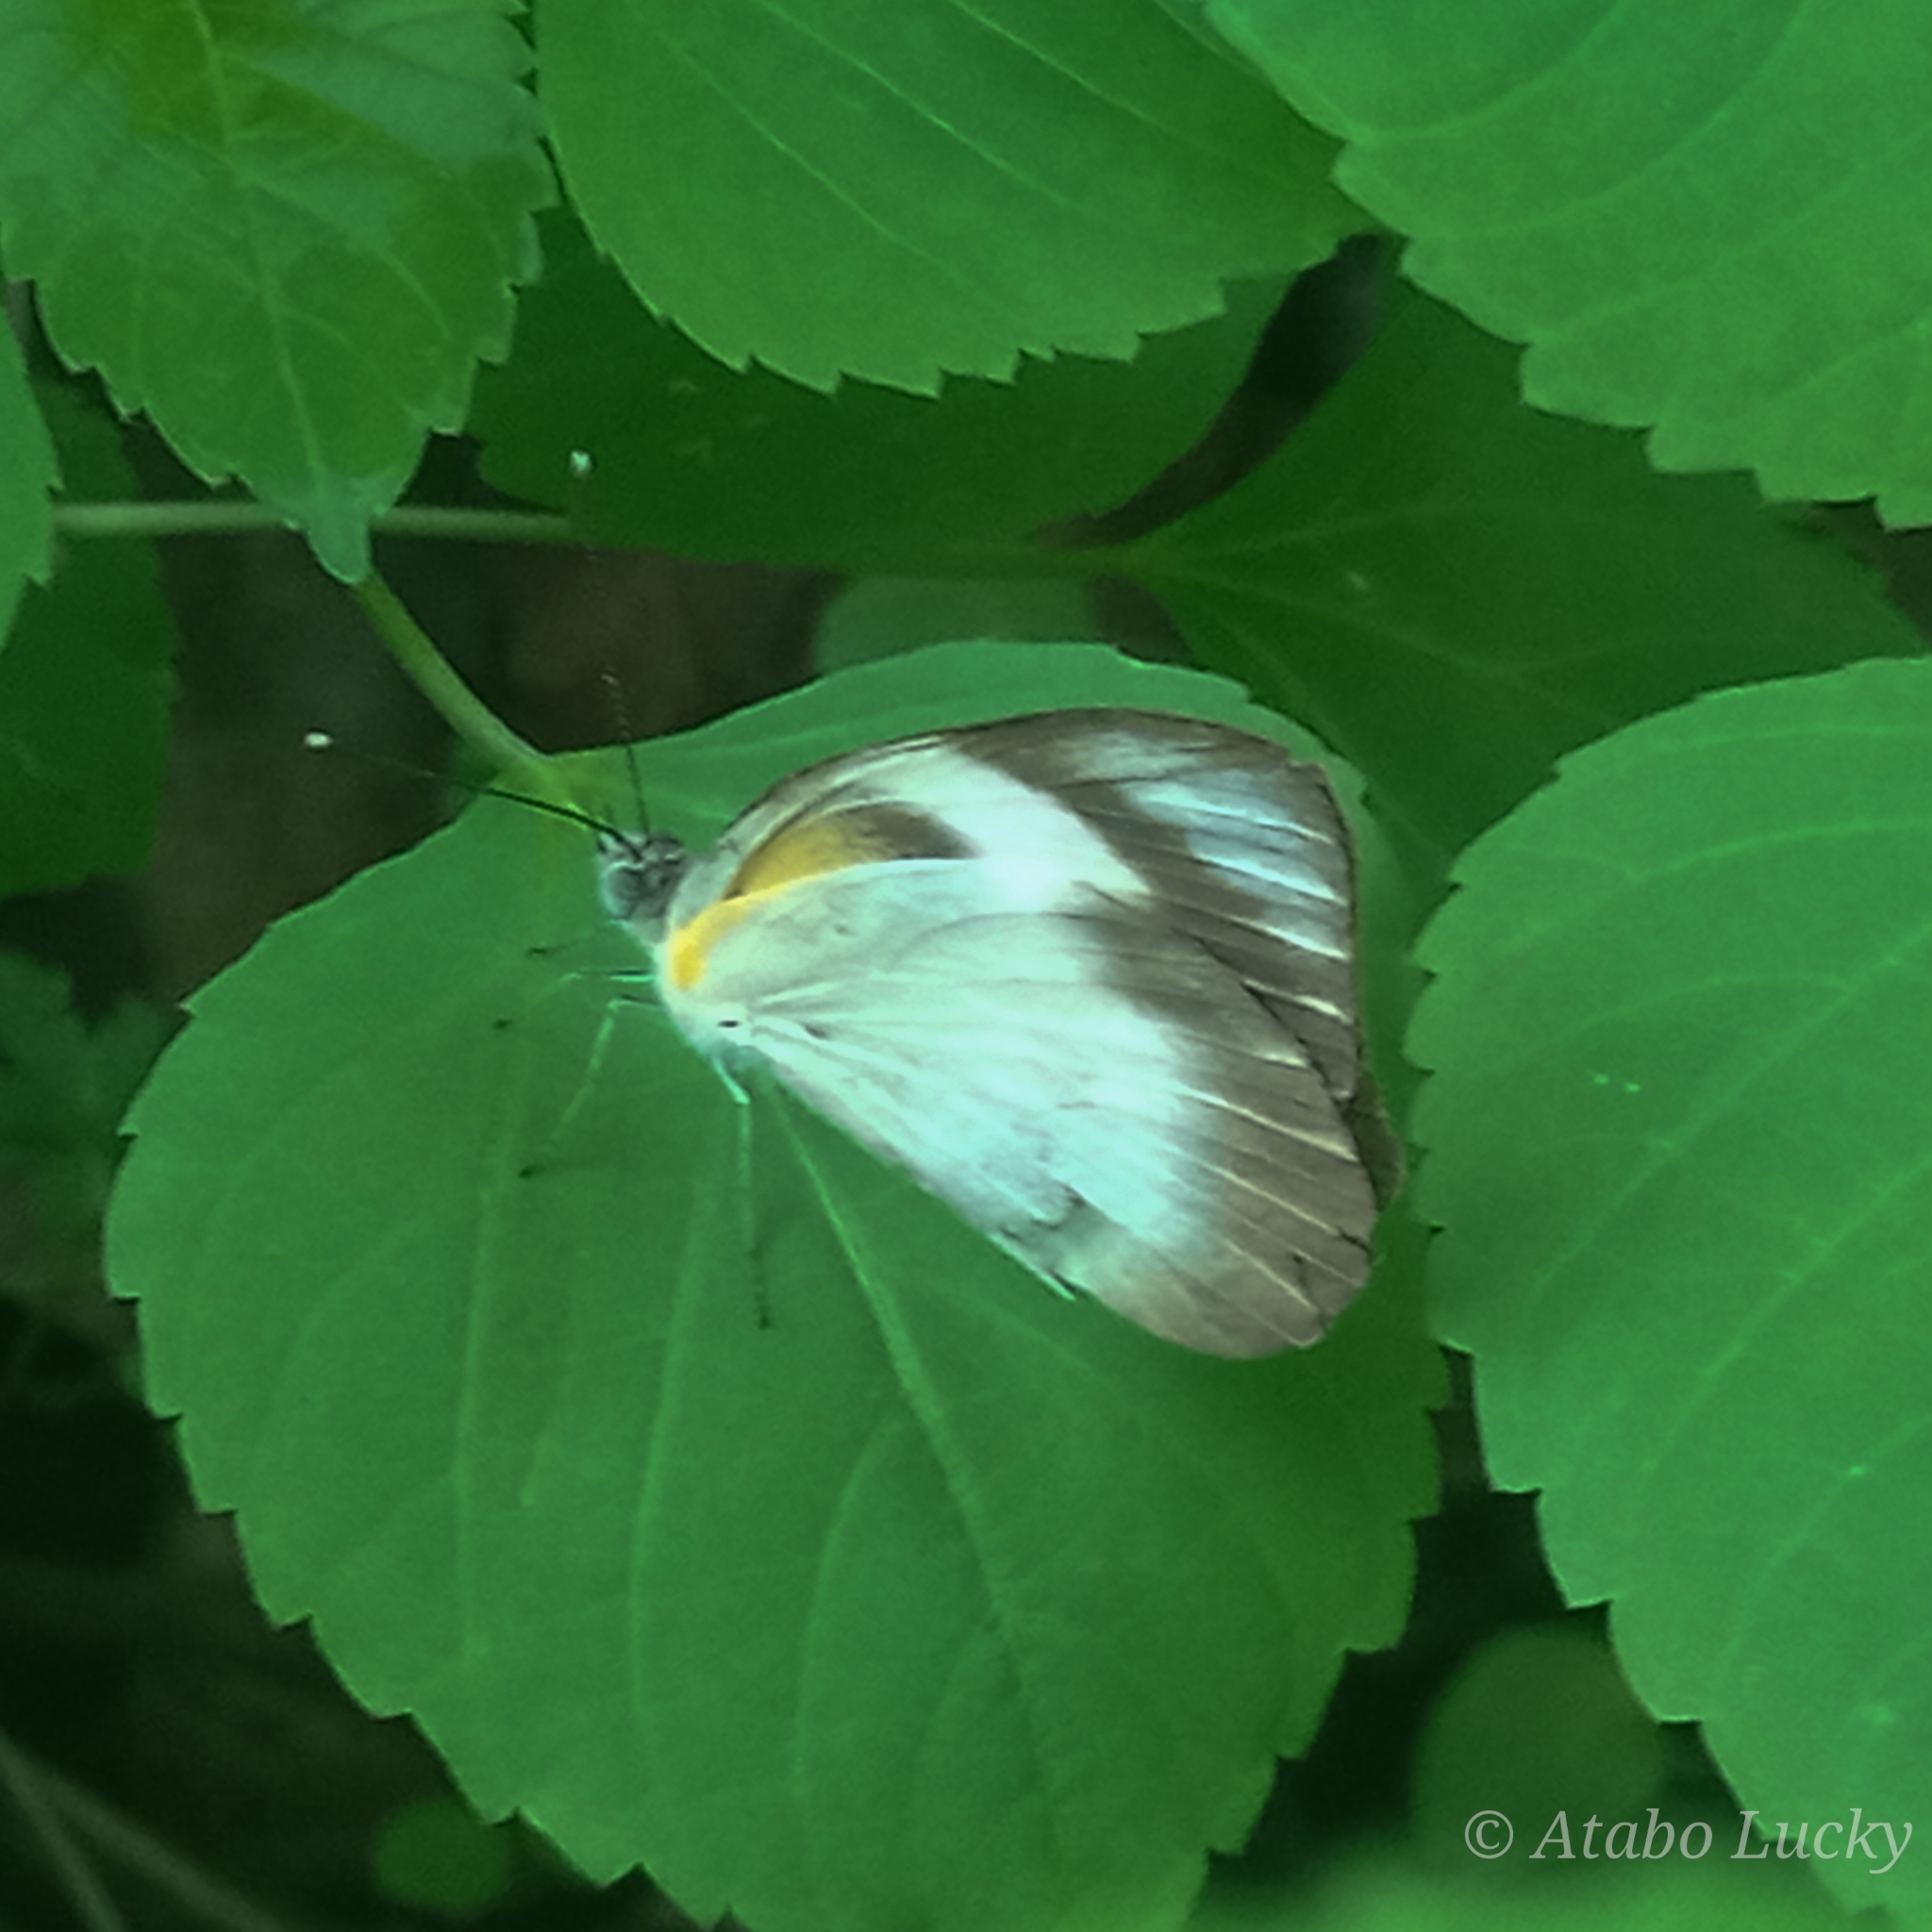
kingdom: Animalia
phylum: Arthropoda
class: Insecta
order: Lepidoptera
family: Pieridae
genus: Glutophrissa
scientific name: Glutophrissa epaphia
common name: African albatross
